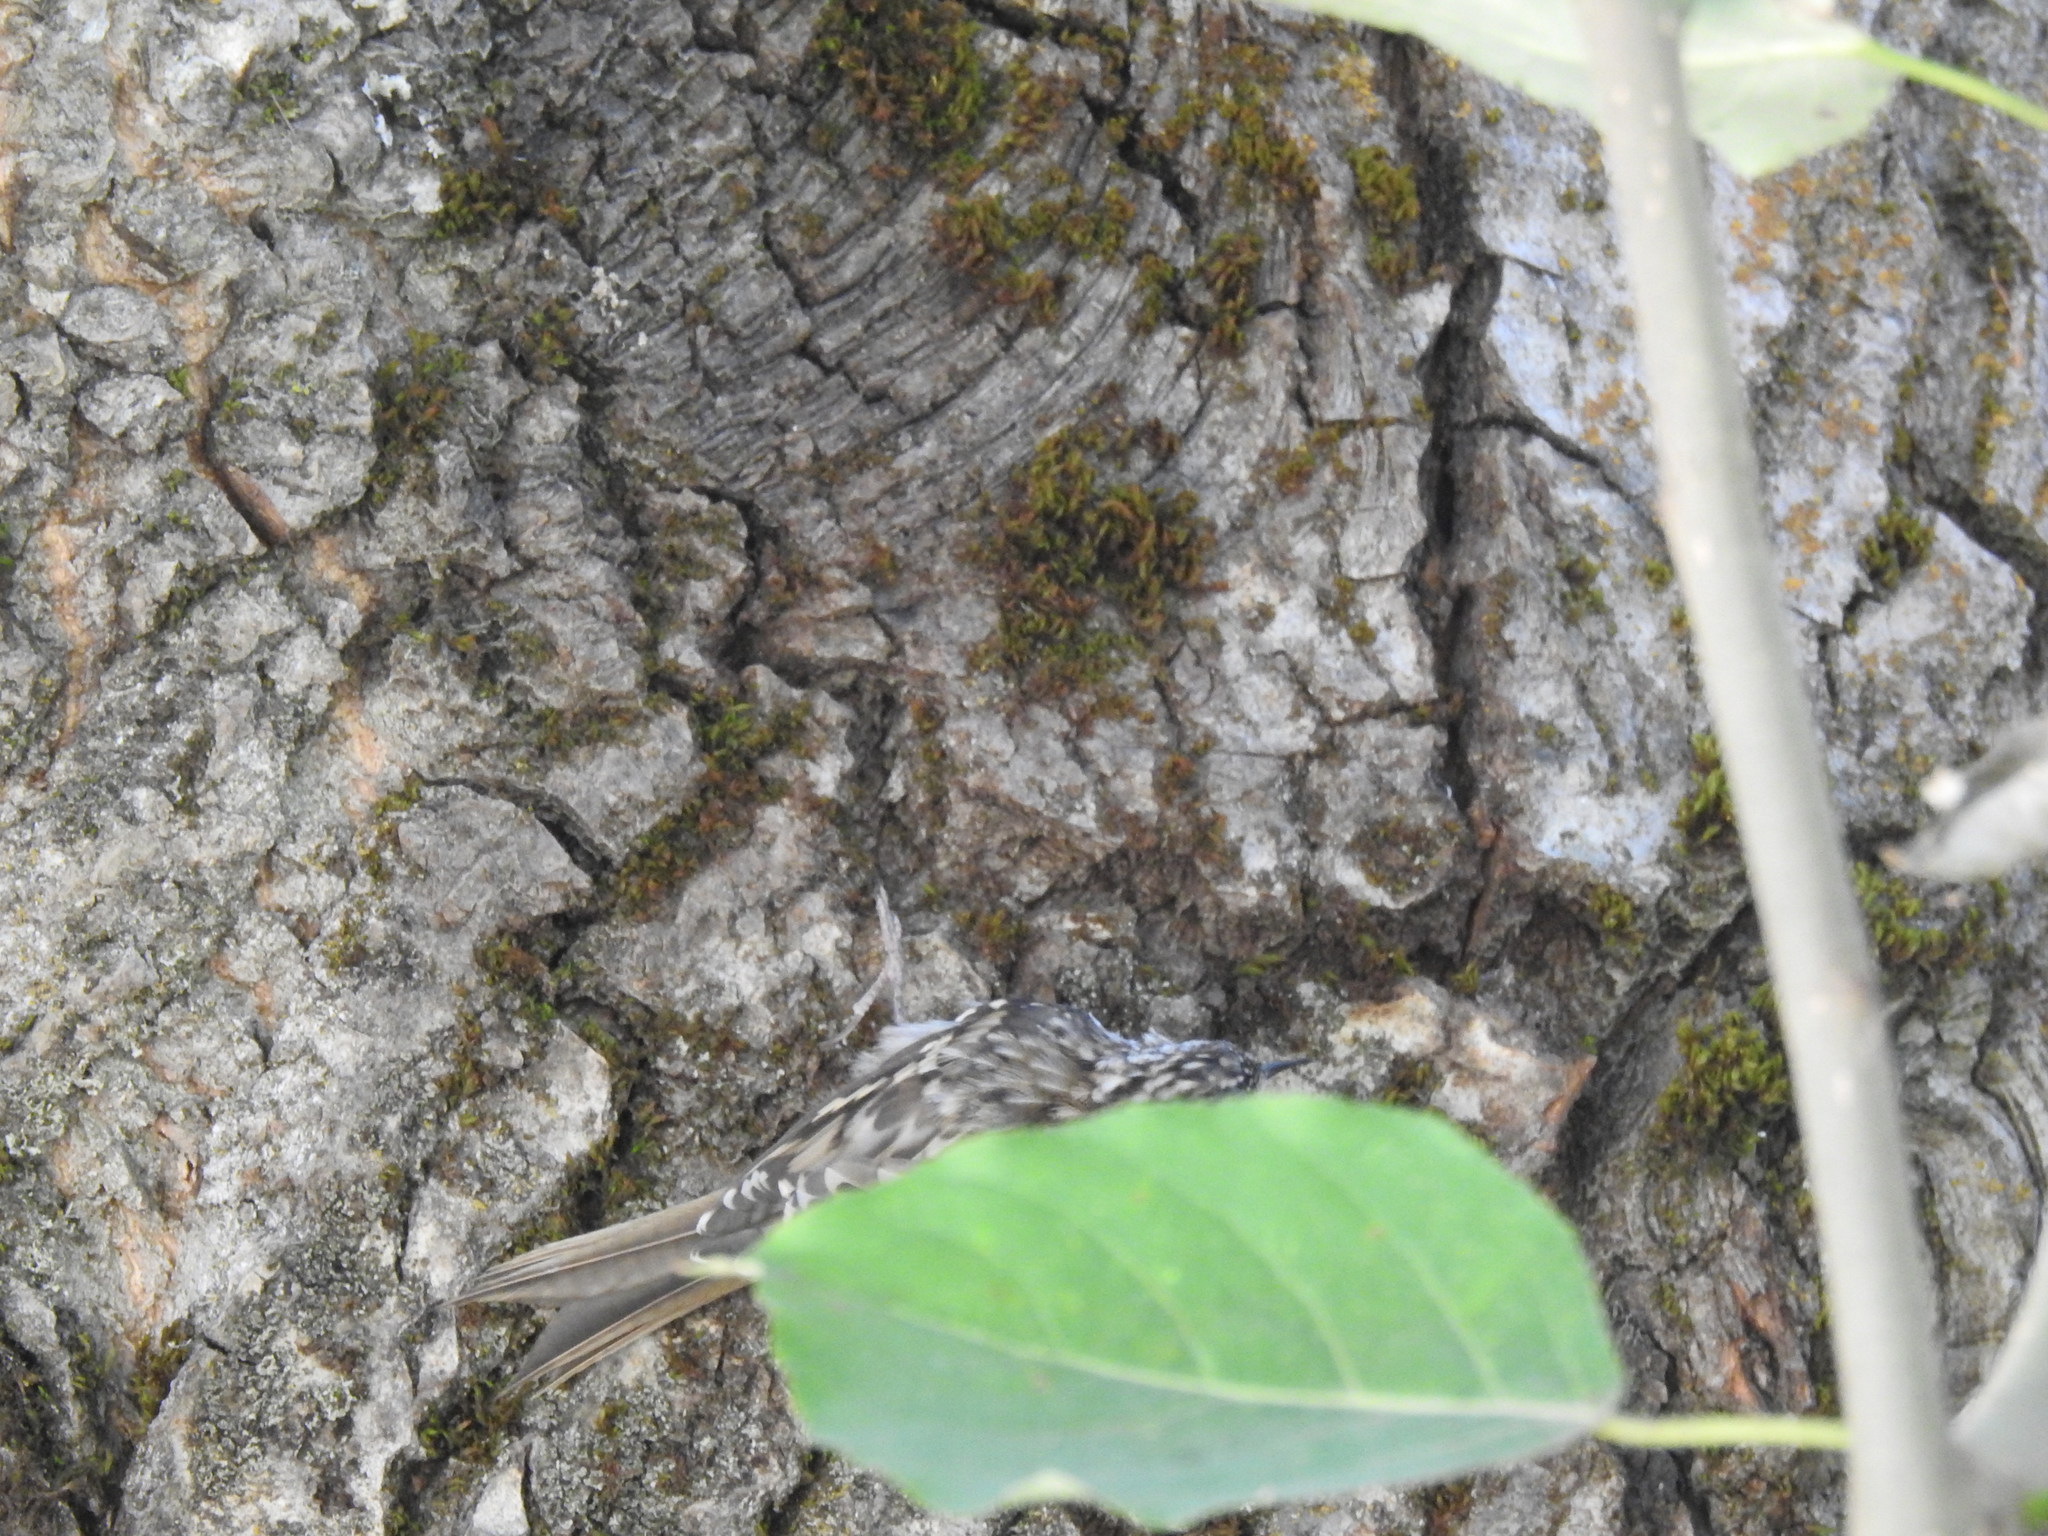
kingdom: Animalia
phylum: Chordata
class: Aves
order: Passeriformes
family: Certhiidae
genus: Certhia
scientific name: Certhia americana
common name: Brown creeper
